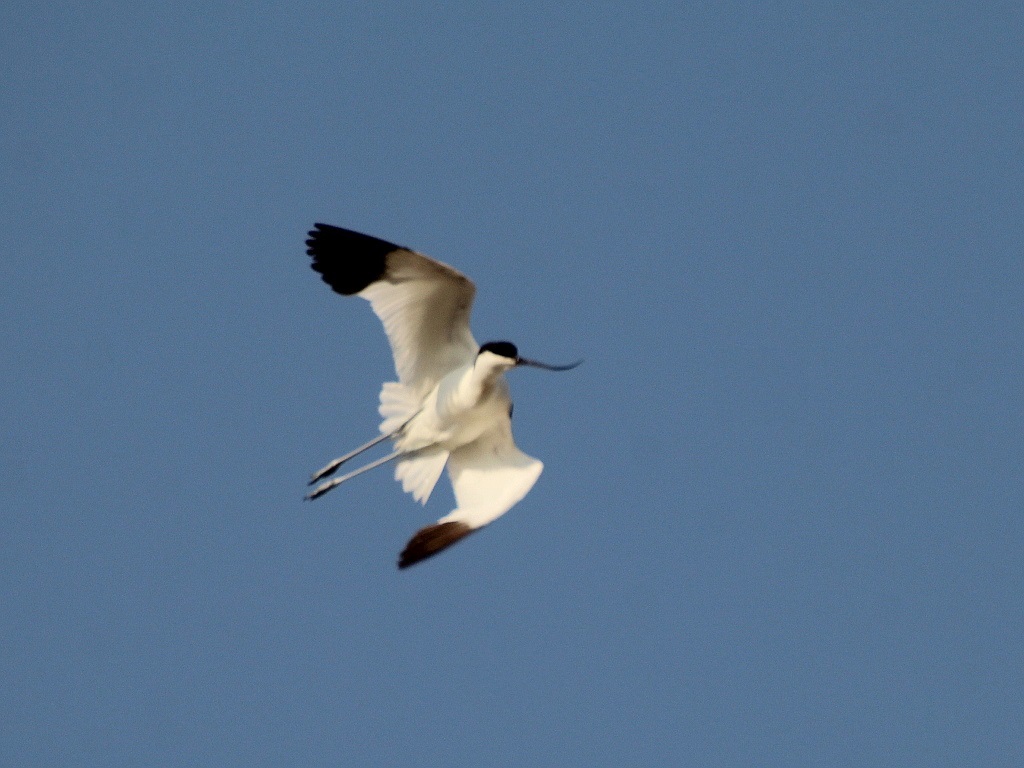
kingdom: Animalia
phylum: Chordata
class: Aves
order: Charadriiformes
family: Recurvirostridae
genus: Recurvirostra
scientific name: Recurvirostra avosetta
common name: Pied avocet
